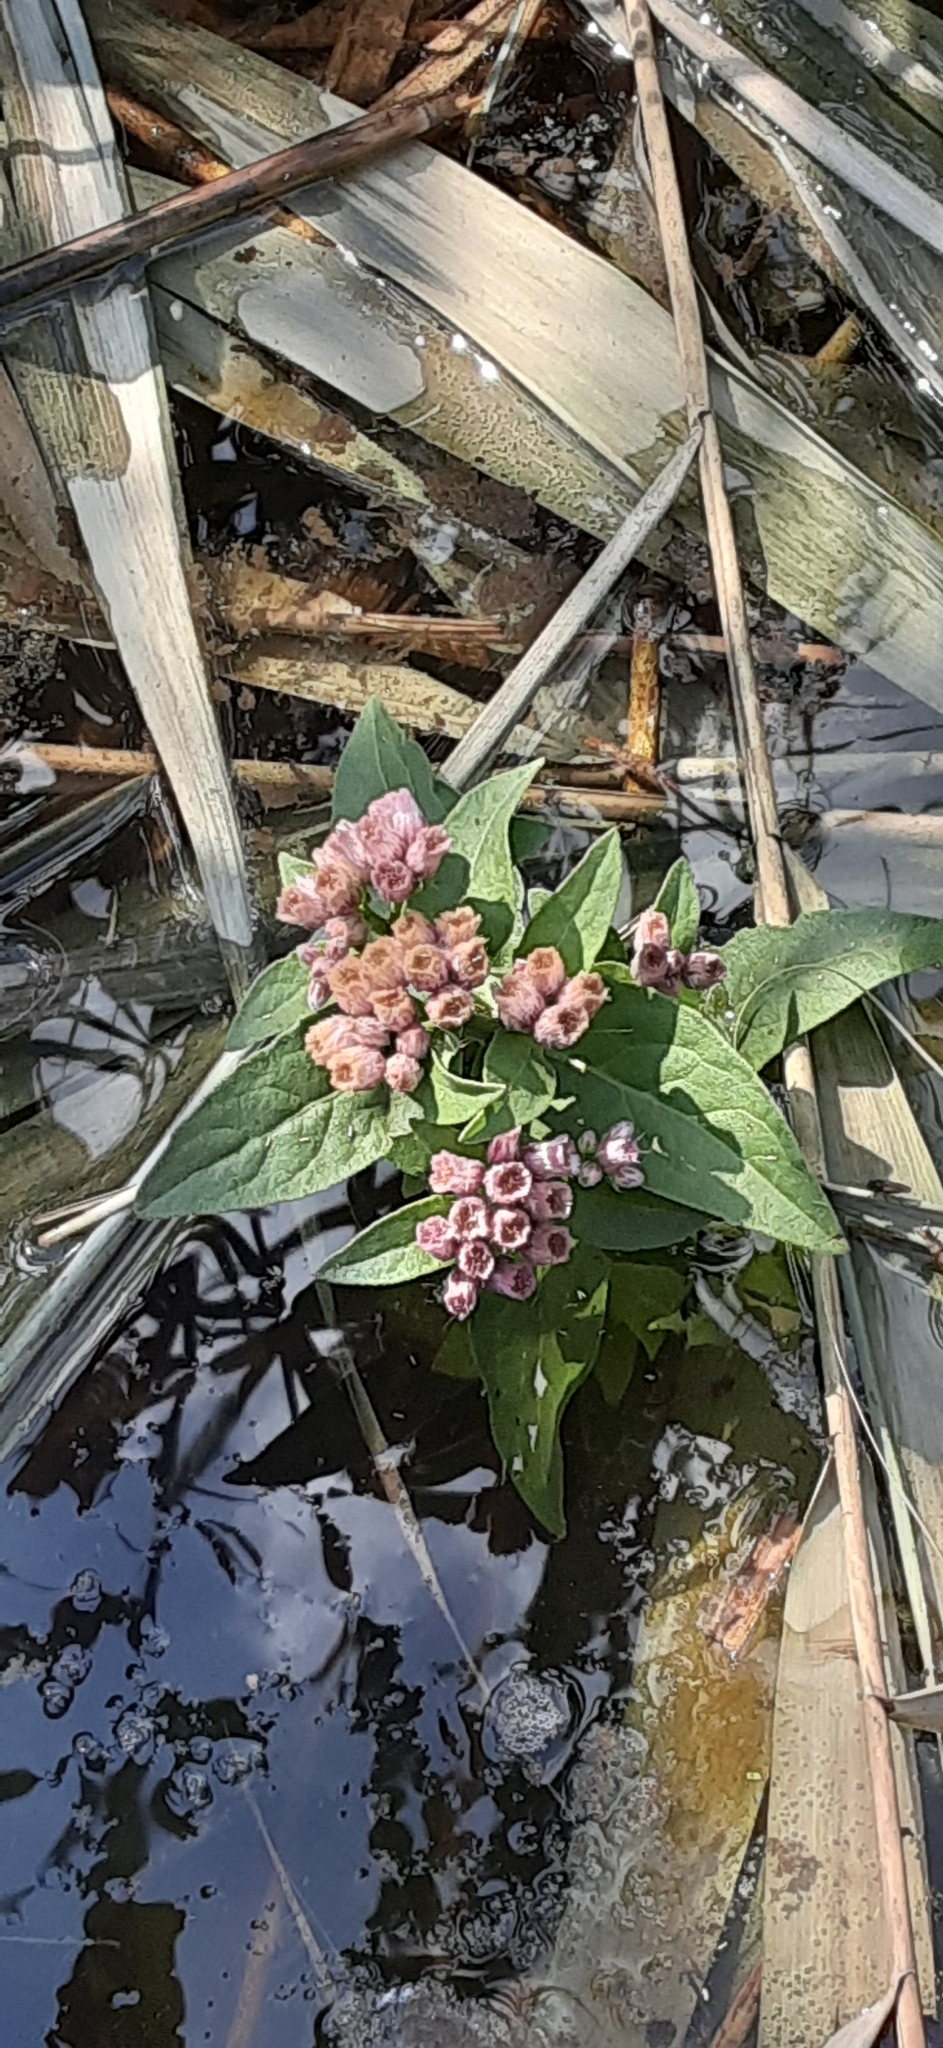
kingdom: Plantae
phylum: Tracheophyta
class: Magnoliopsida
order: Asterales
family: Asteraceae
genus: Pluchea
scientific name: Pluchea odorata
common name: Saltmarsh fleabane
